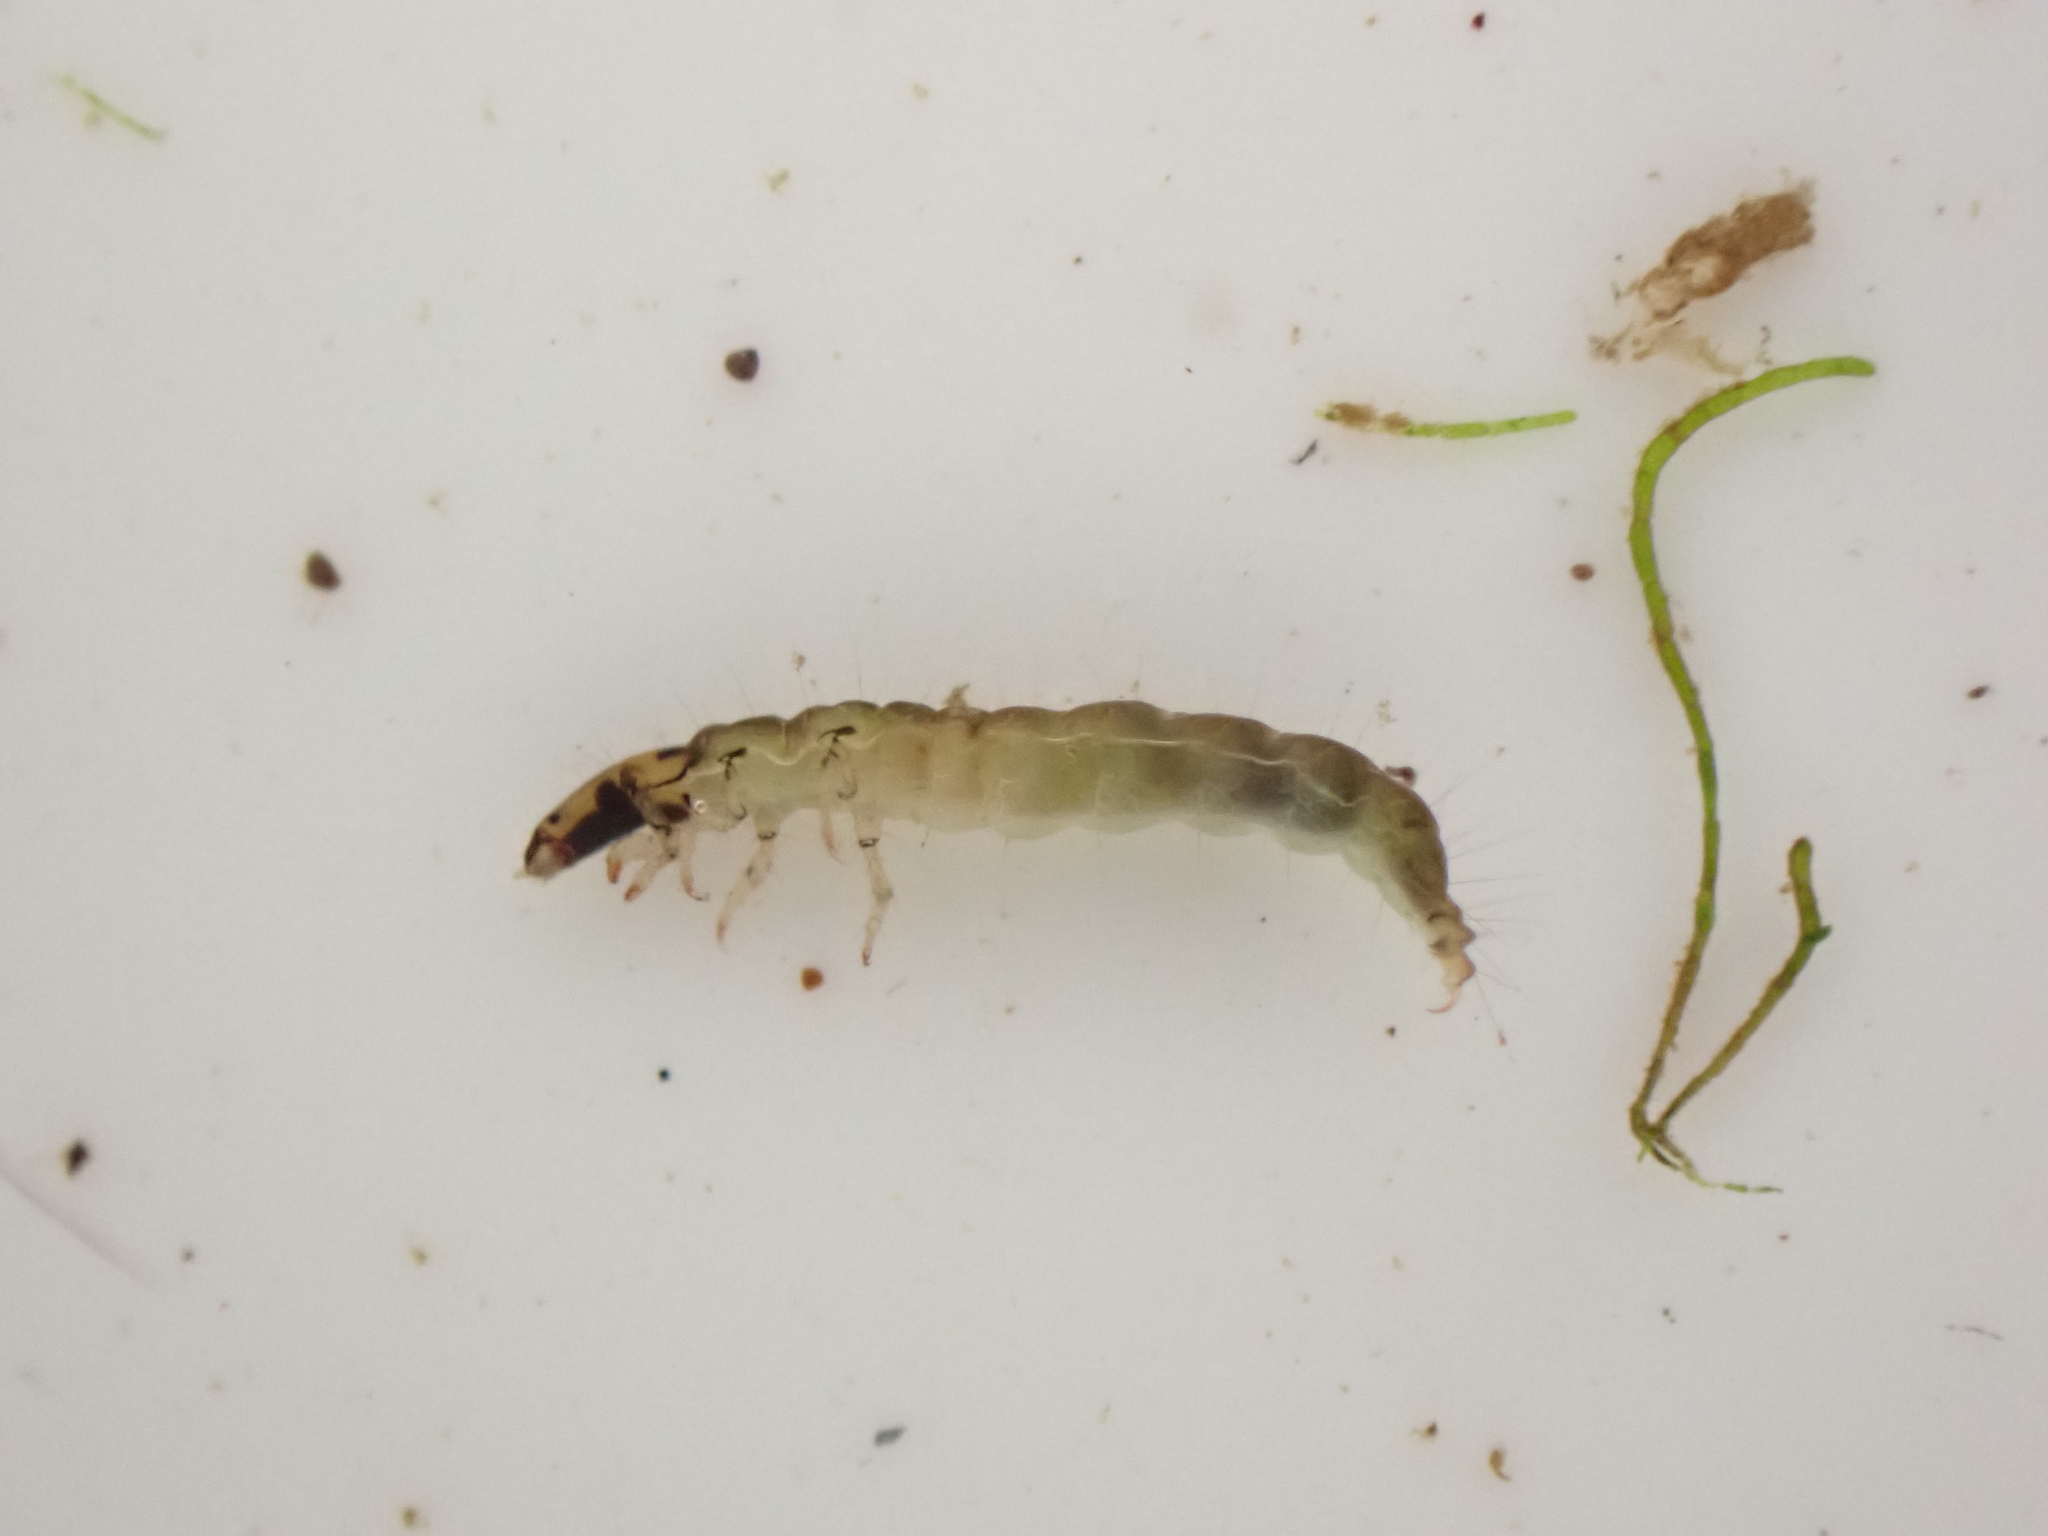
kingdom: Animalia
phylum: Arthropoda
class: Insecta
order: Trichoptera
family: Hydrobiosidae
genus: Neurochorema
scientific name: Neurochorema armstrongi
